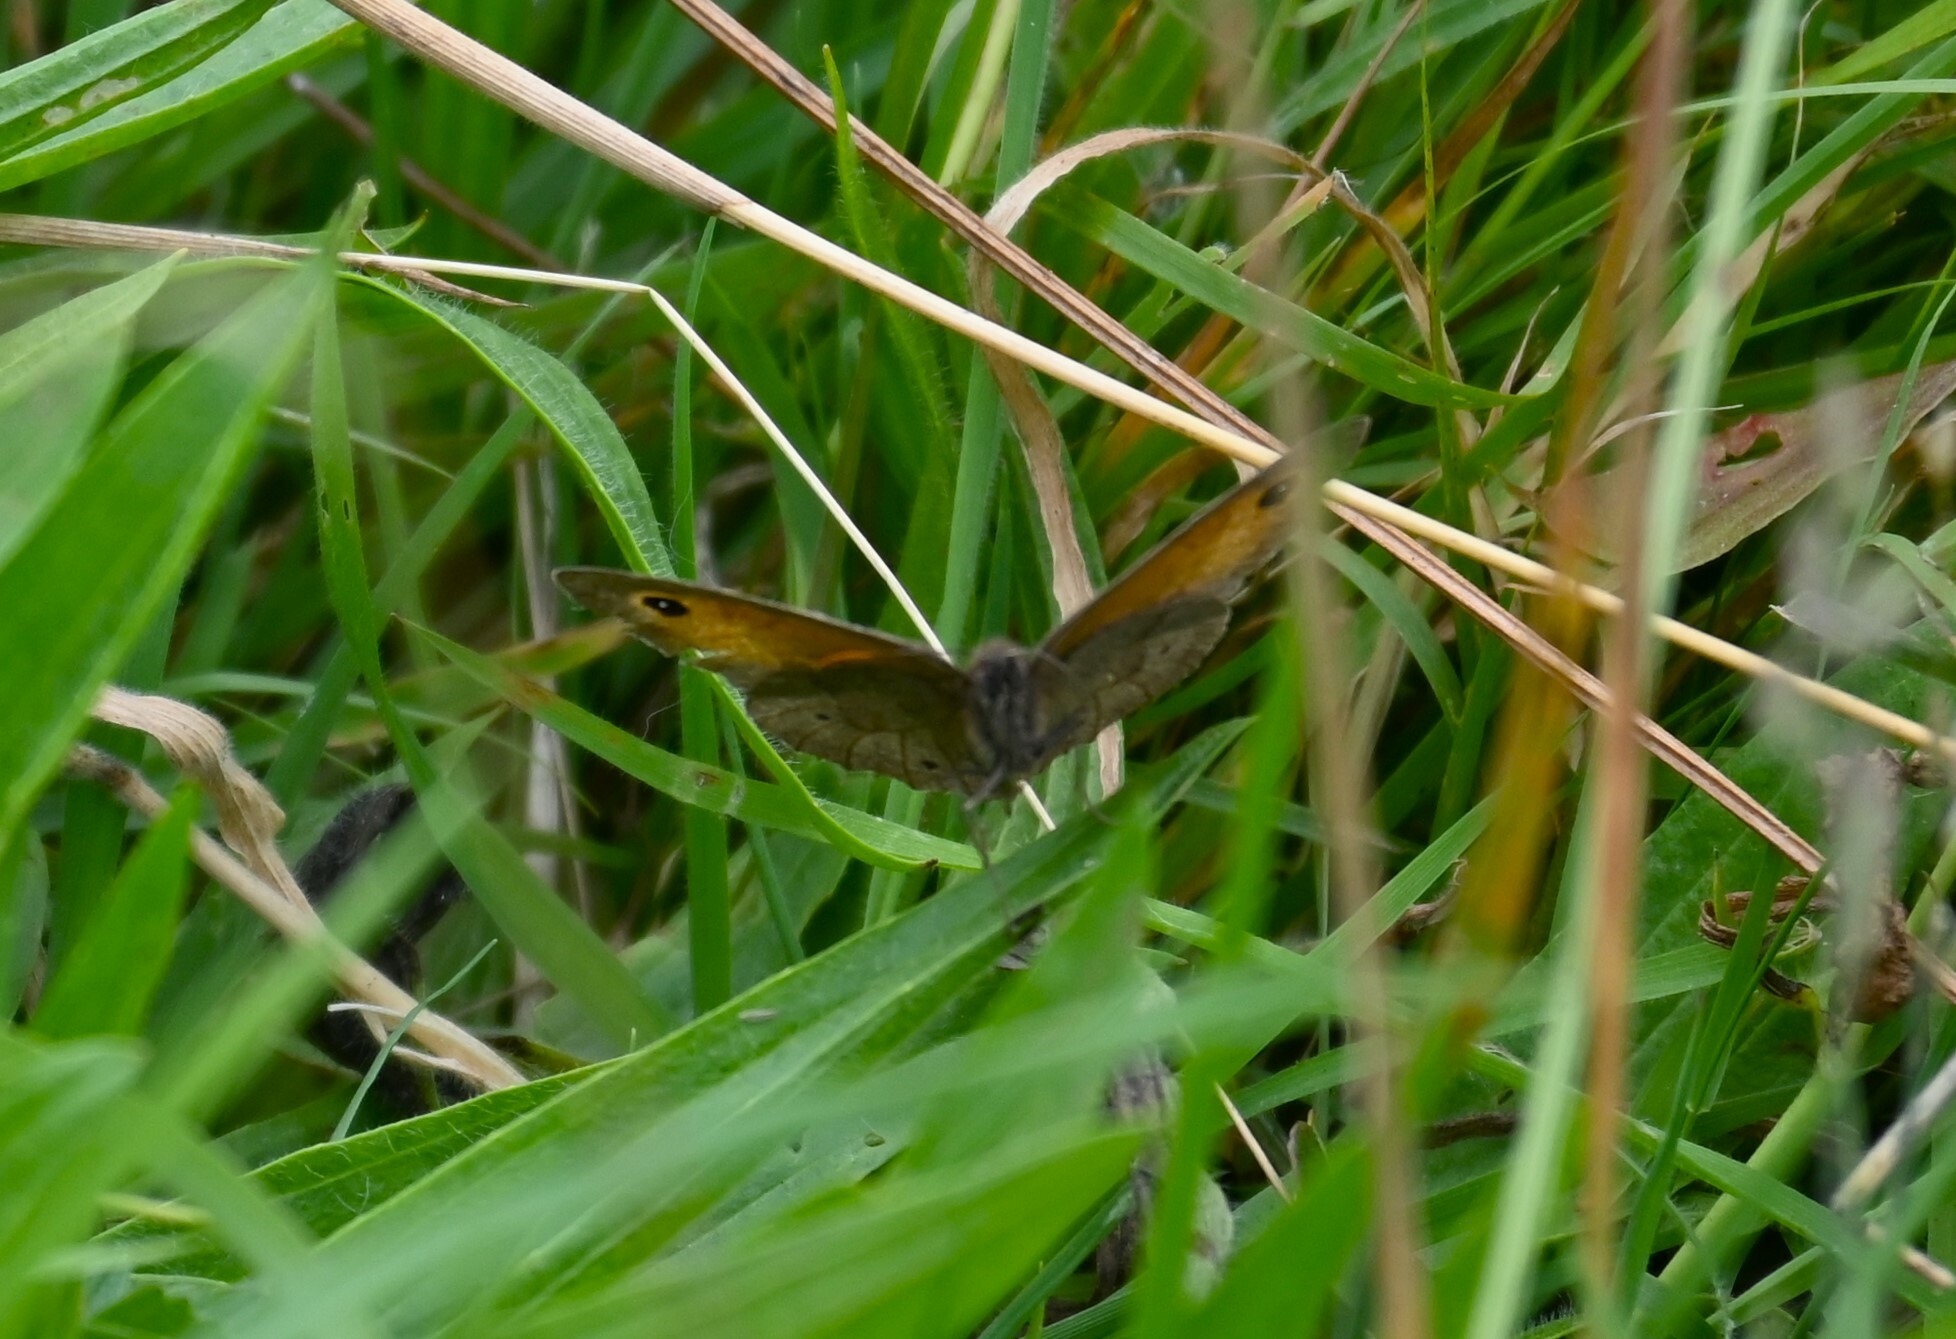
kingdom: Animalia
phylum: Arthropoda
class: Insecta
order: Lepidoptera
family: Nymphalidae
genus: Maniola
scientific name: Maniola jurtina
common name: Meadow brown
